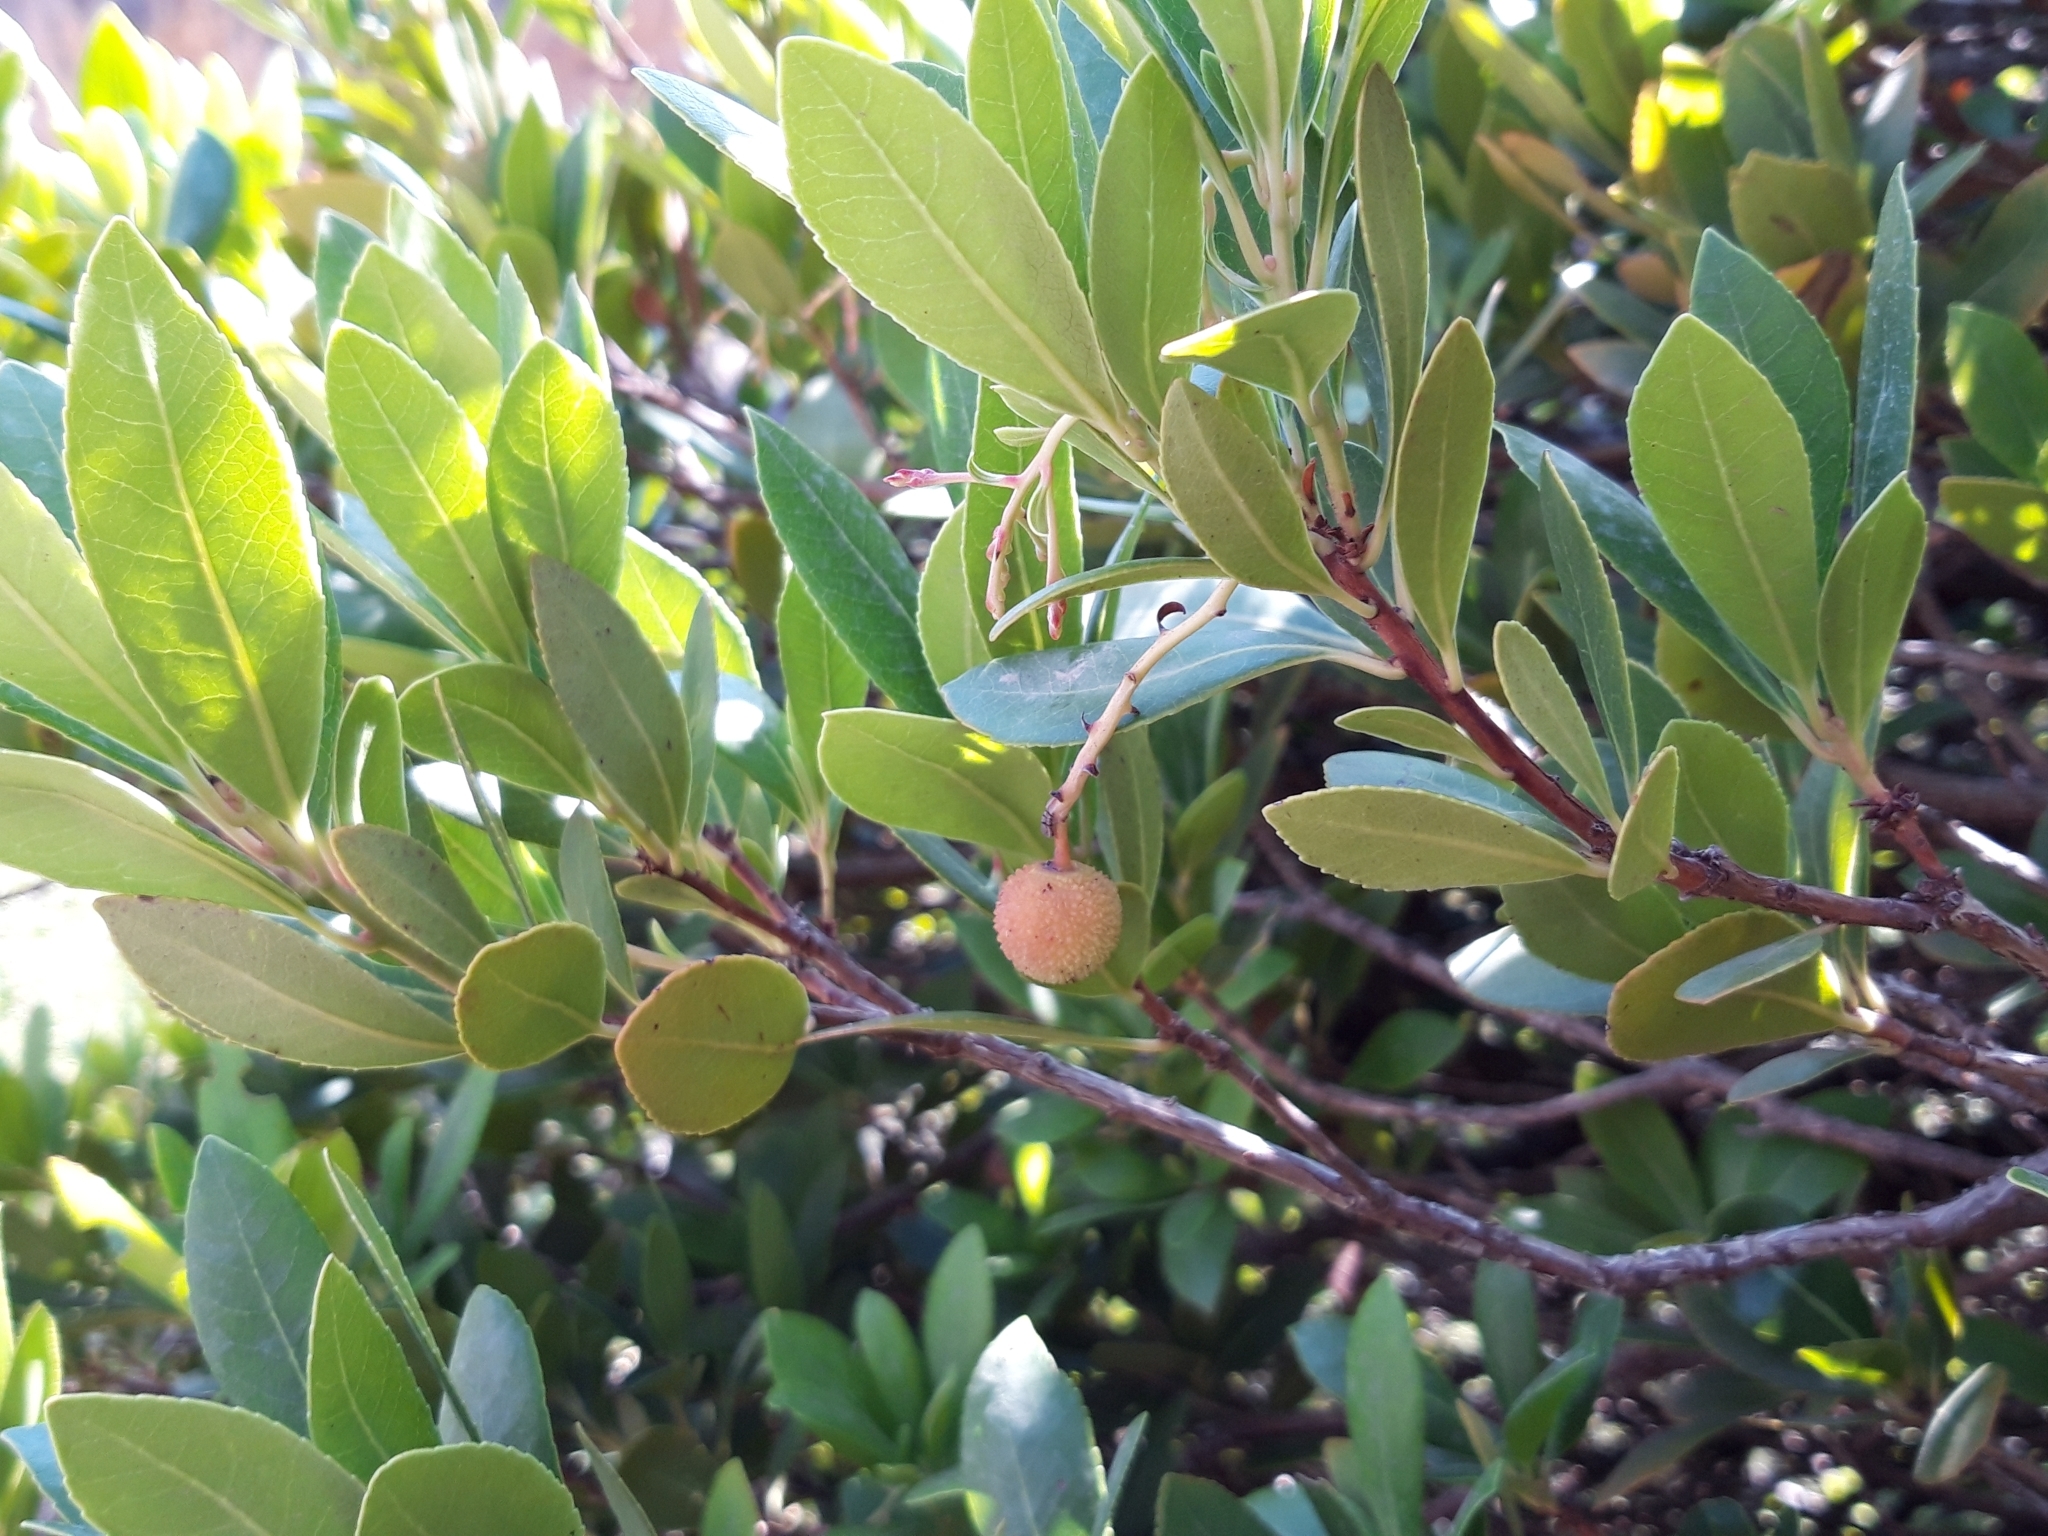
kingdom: Plantae
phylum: Tracheophyta
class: Magnoliopsida
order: Ericales
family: Ericaceae
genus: Arbutus
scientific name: Arbutus unedo
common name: Strawberry-tree
